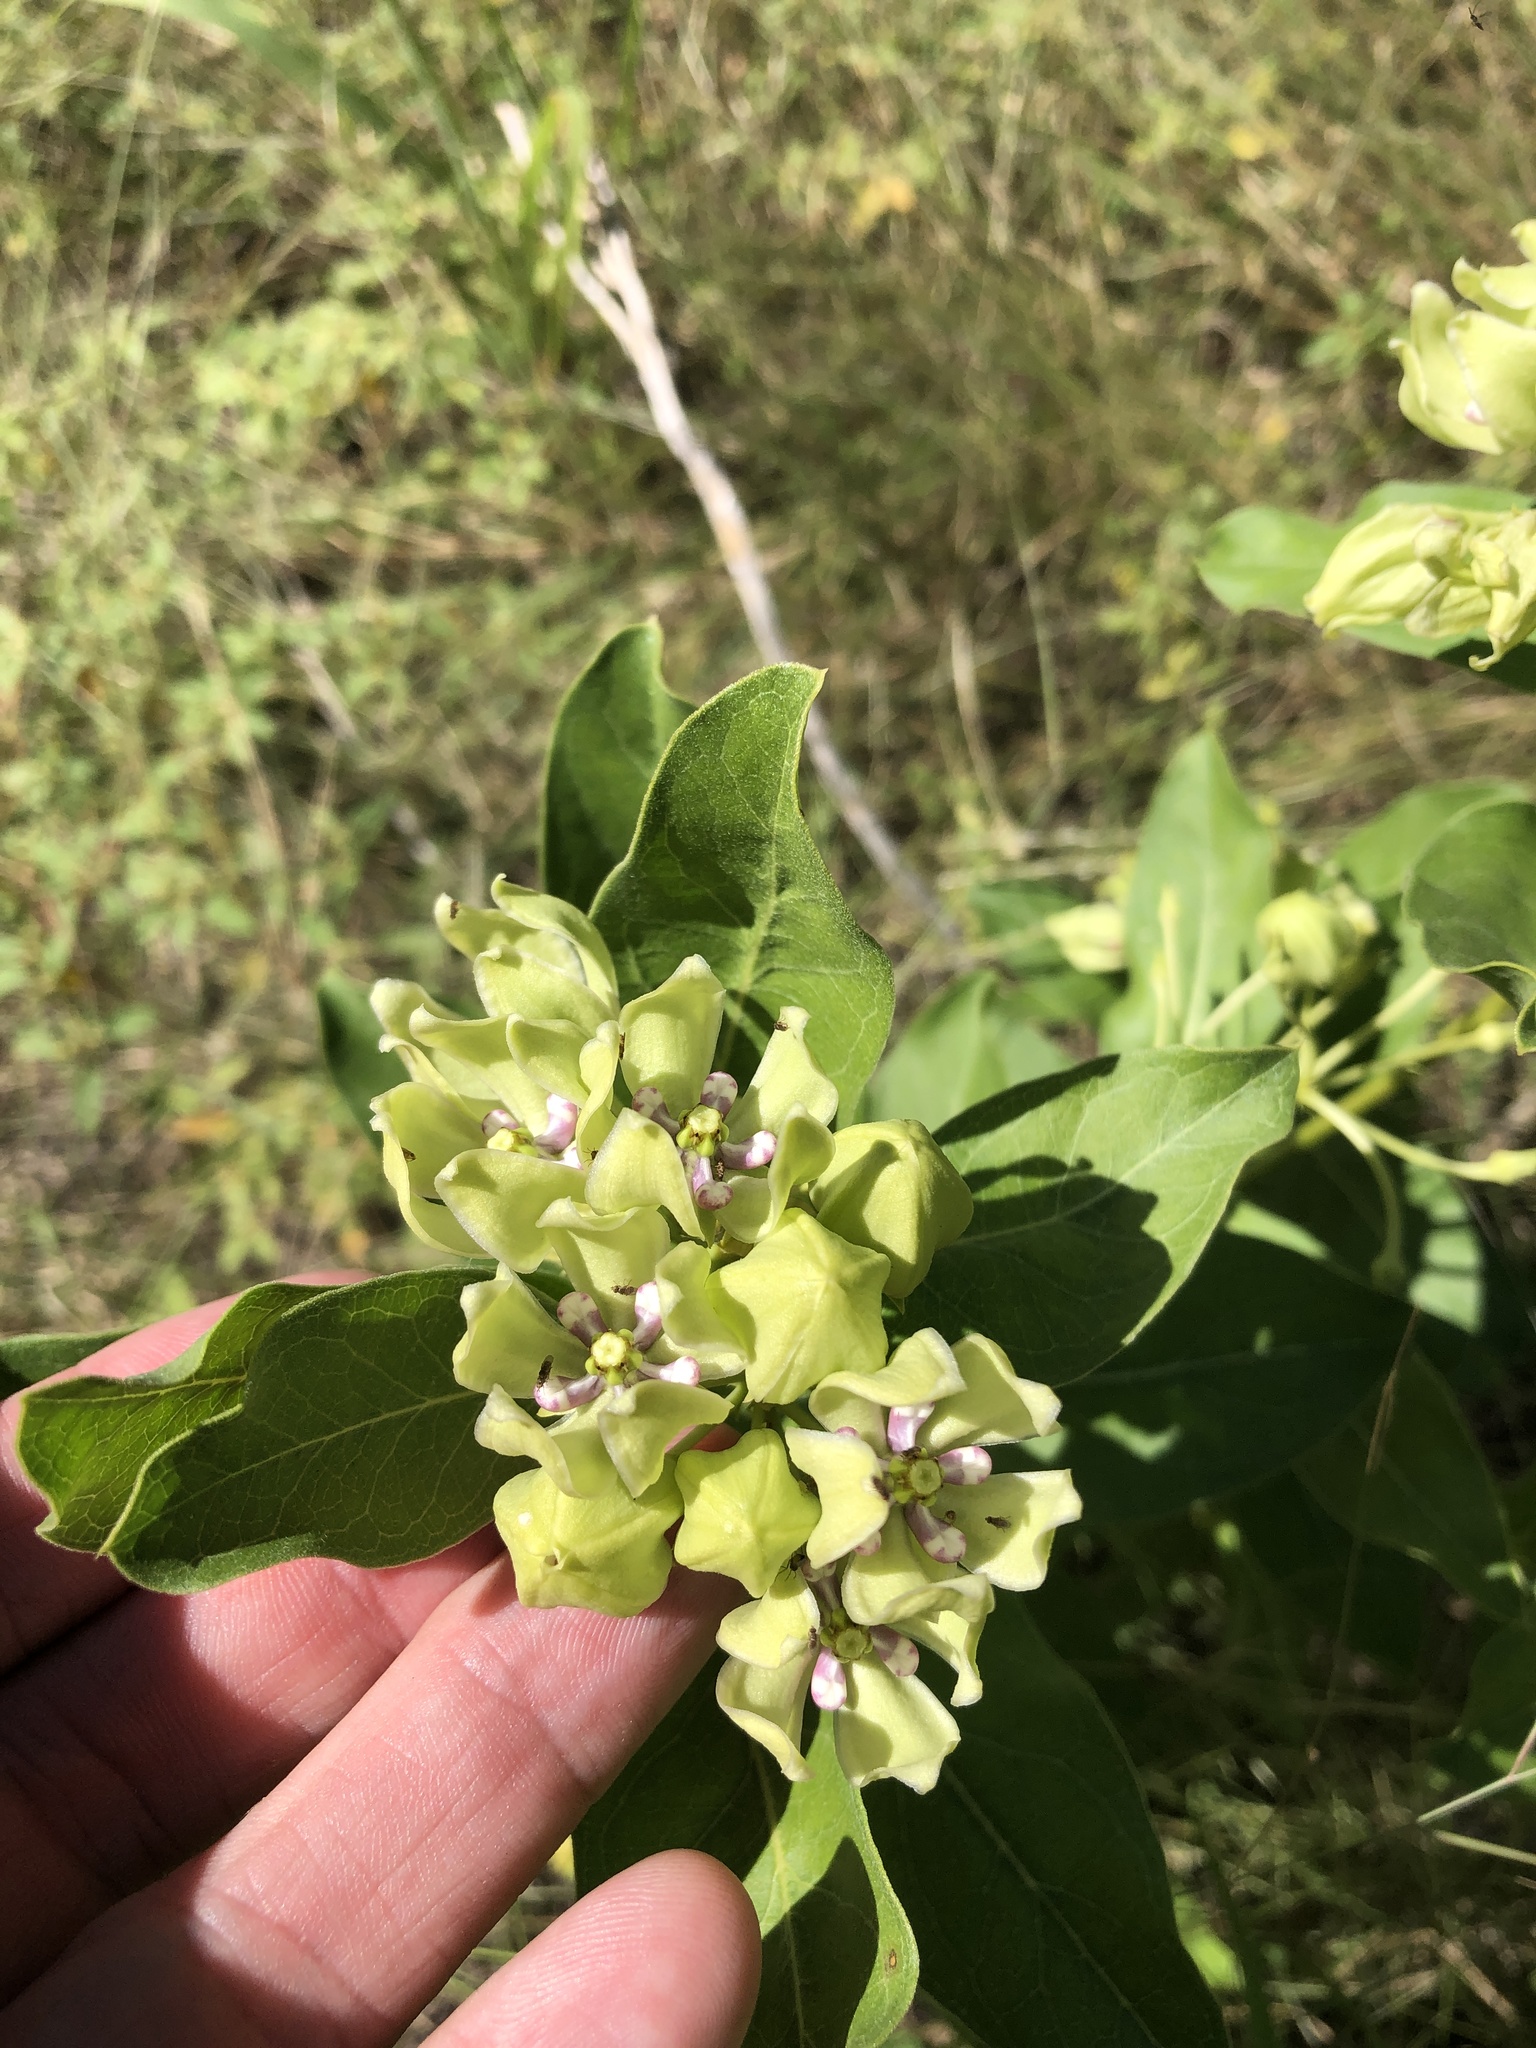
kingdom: Plantae
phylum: Tracheophyta
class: Magnoliopsida
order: Gentianales
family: Apocynaceae
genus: Asclepias
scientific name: Asclepias viridis
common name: Antelope-horns
